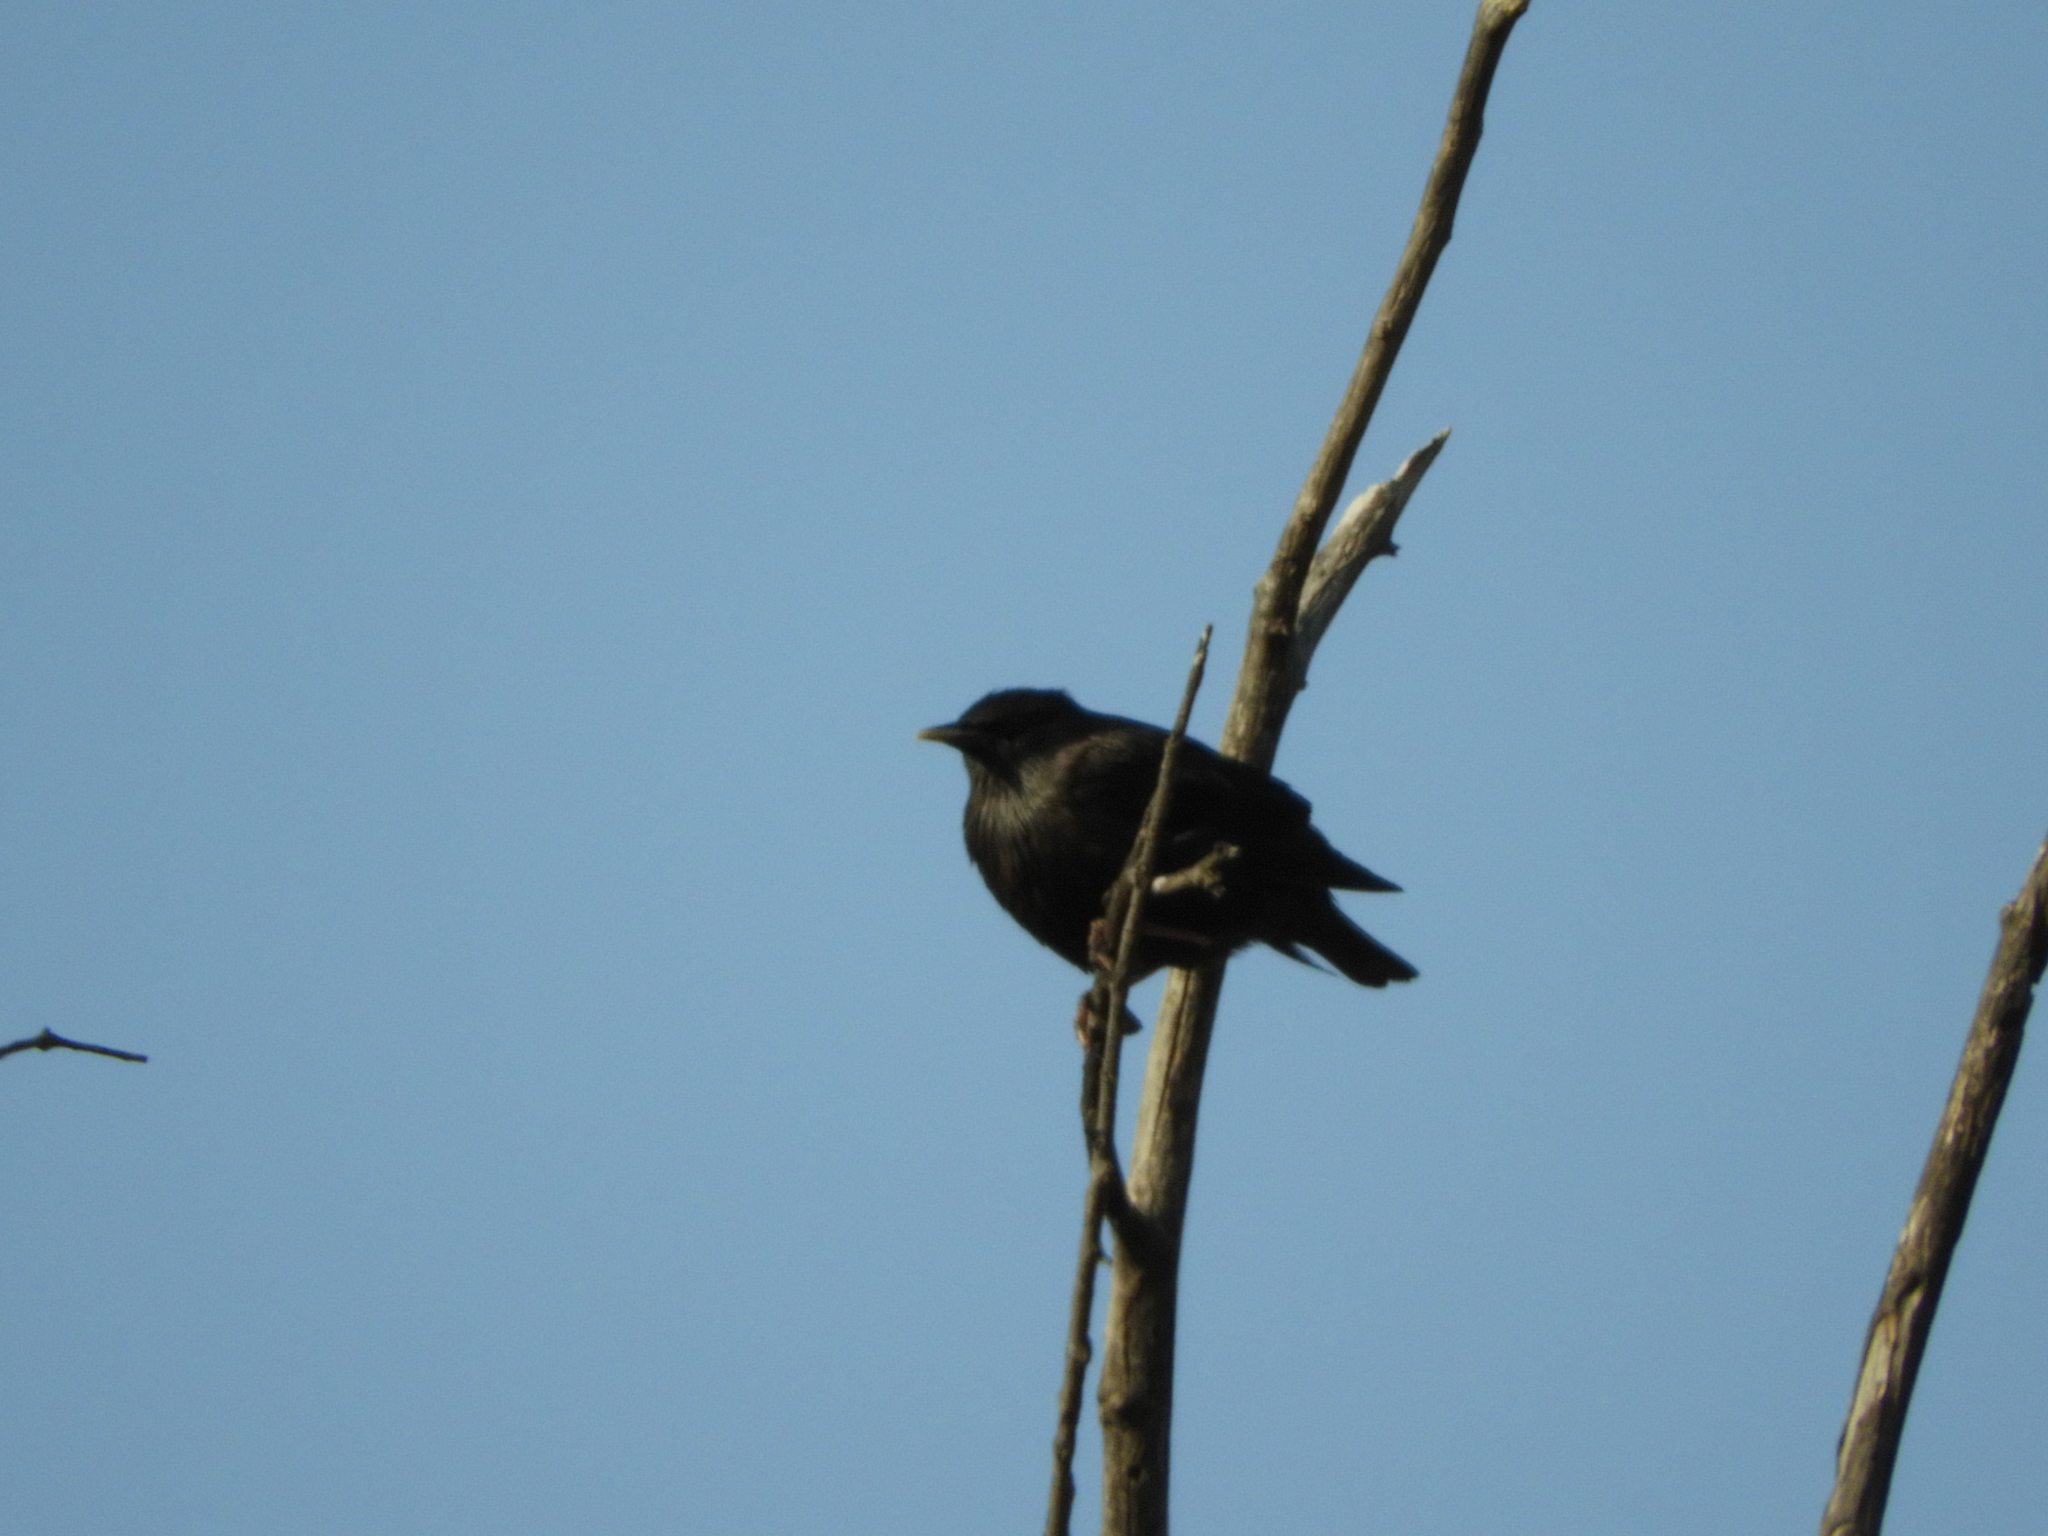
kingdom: Animalia
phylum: Chordata
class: Aves
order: Passeriformes
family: Sturnidae
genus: Sturnus
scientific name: Sturnus unicolor
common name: Spotless starling
